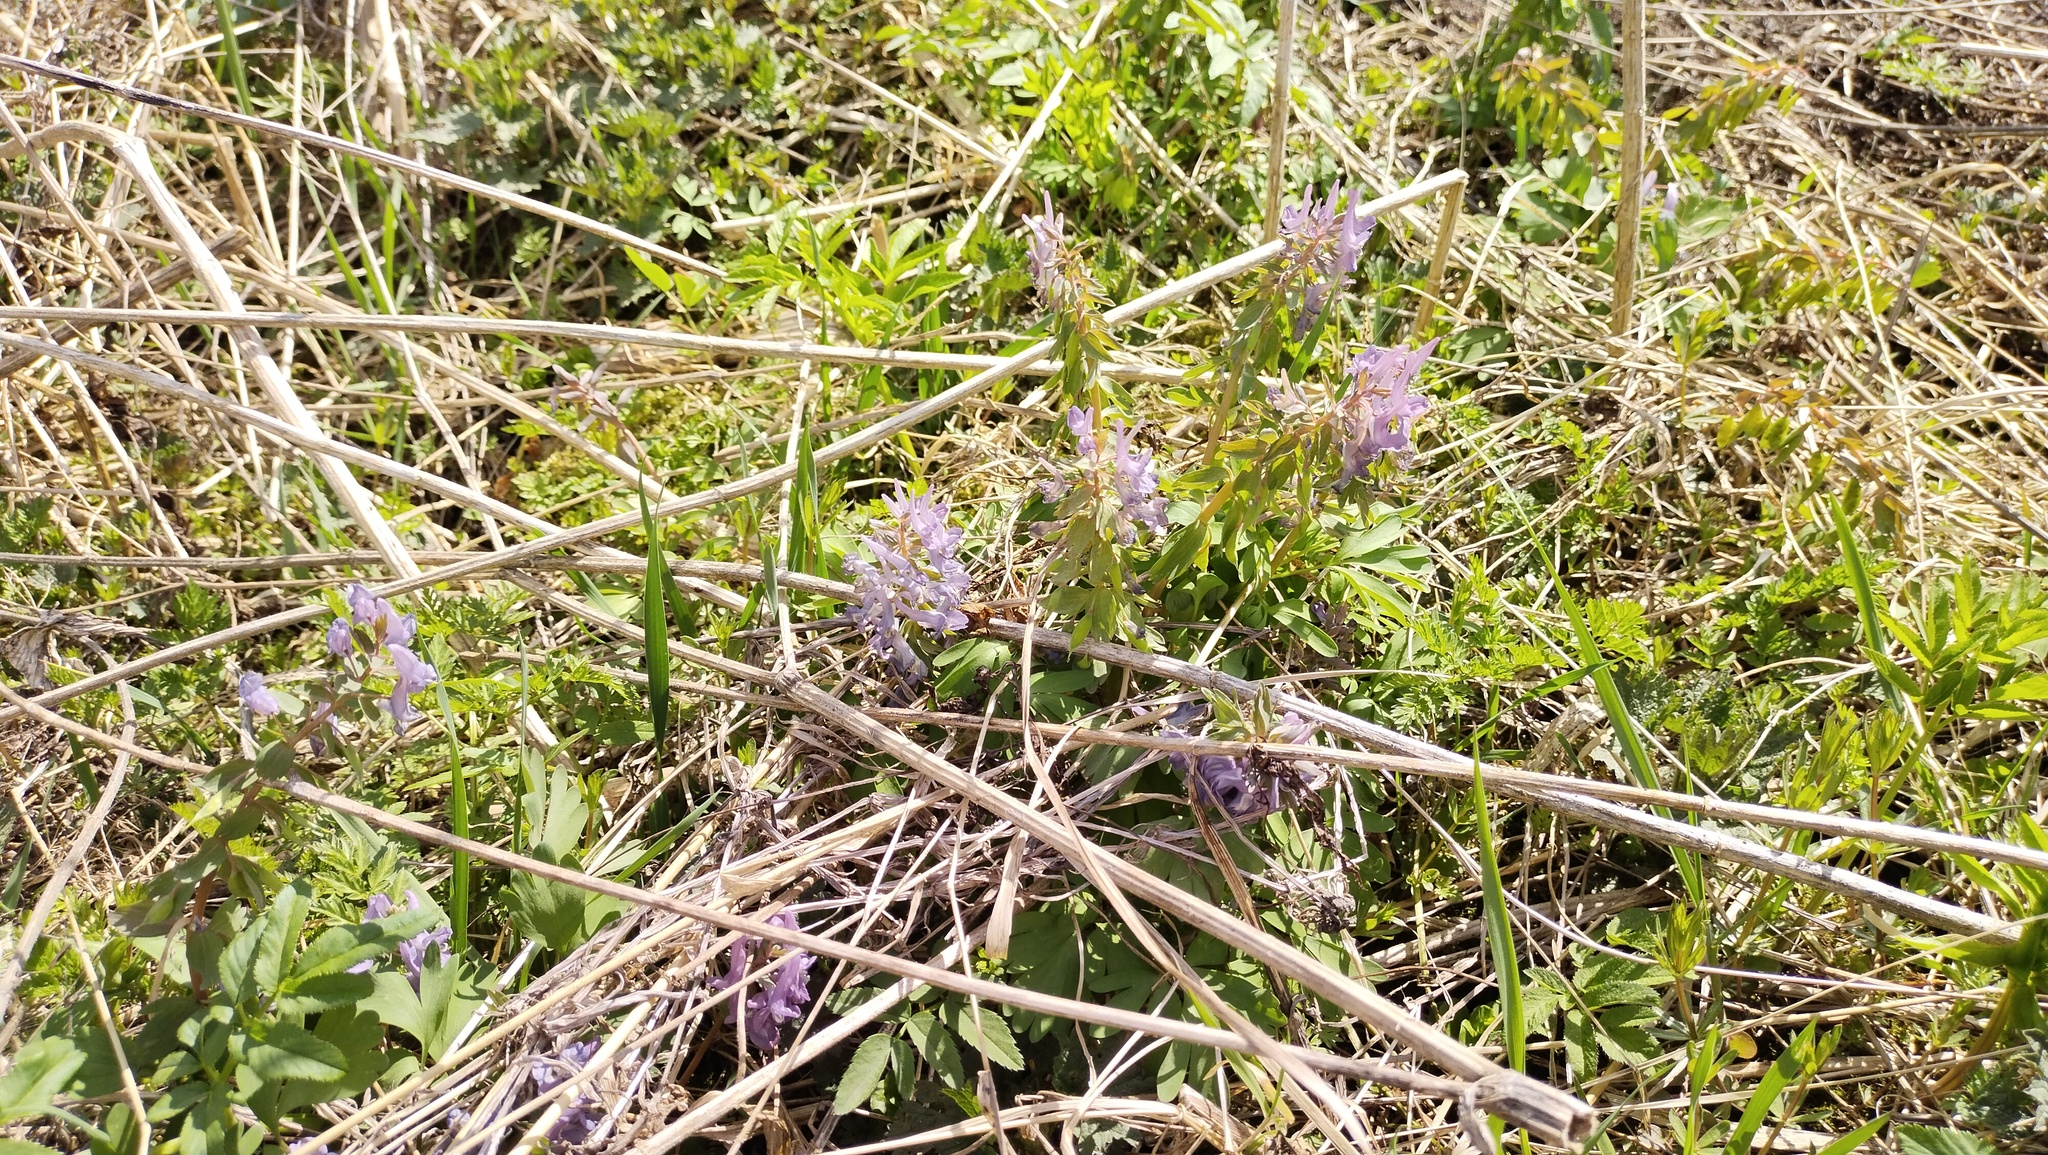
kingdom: Plantae
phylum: Tracheophyta
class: Magnoliopsida
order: Ranunculales
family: Papaveraceae
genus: Corydalis
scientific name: Corydalis solida
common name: Bird-in-a-bush
